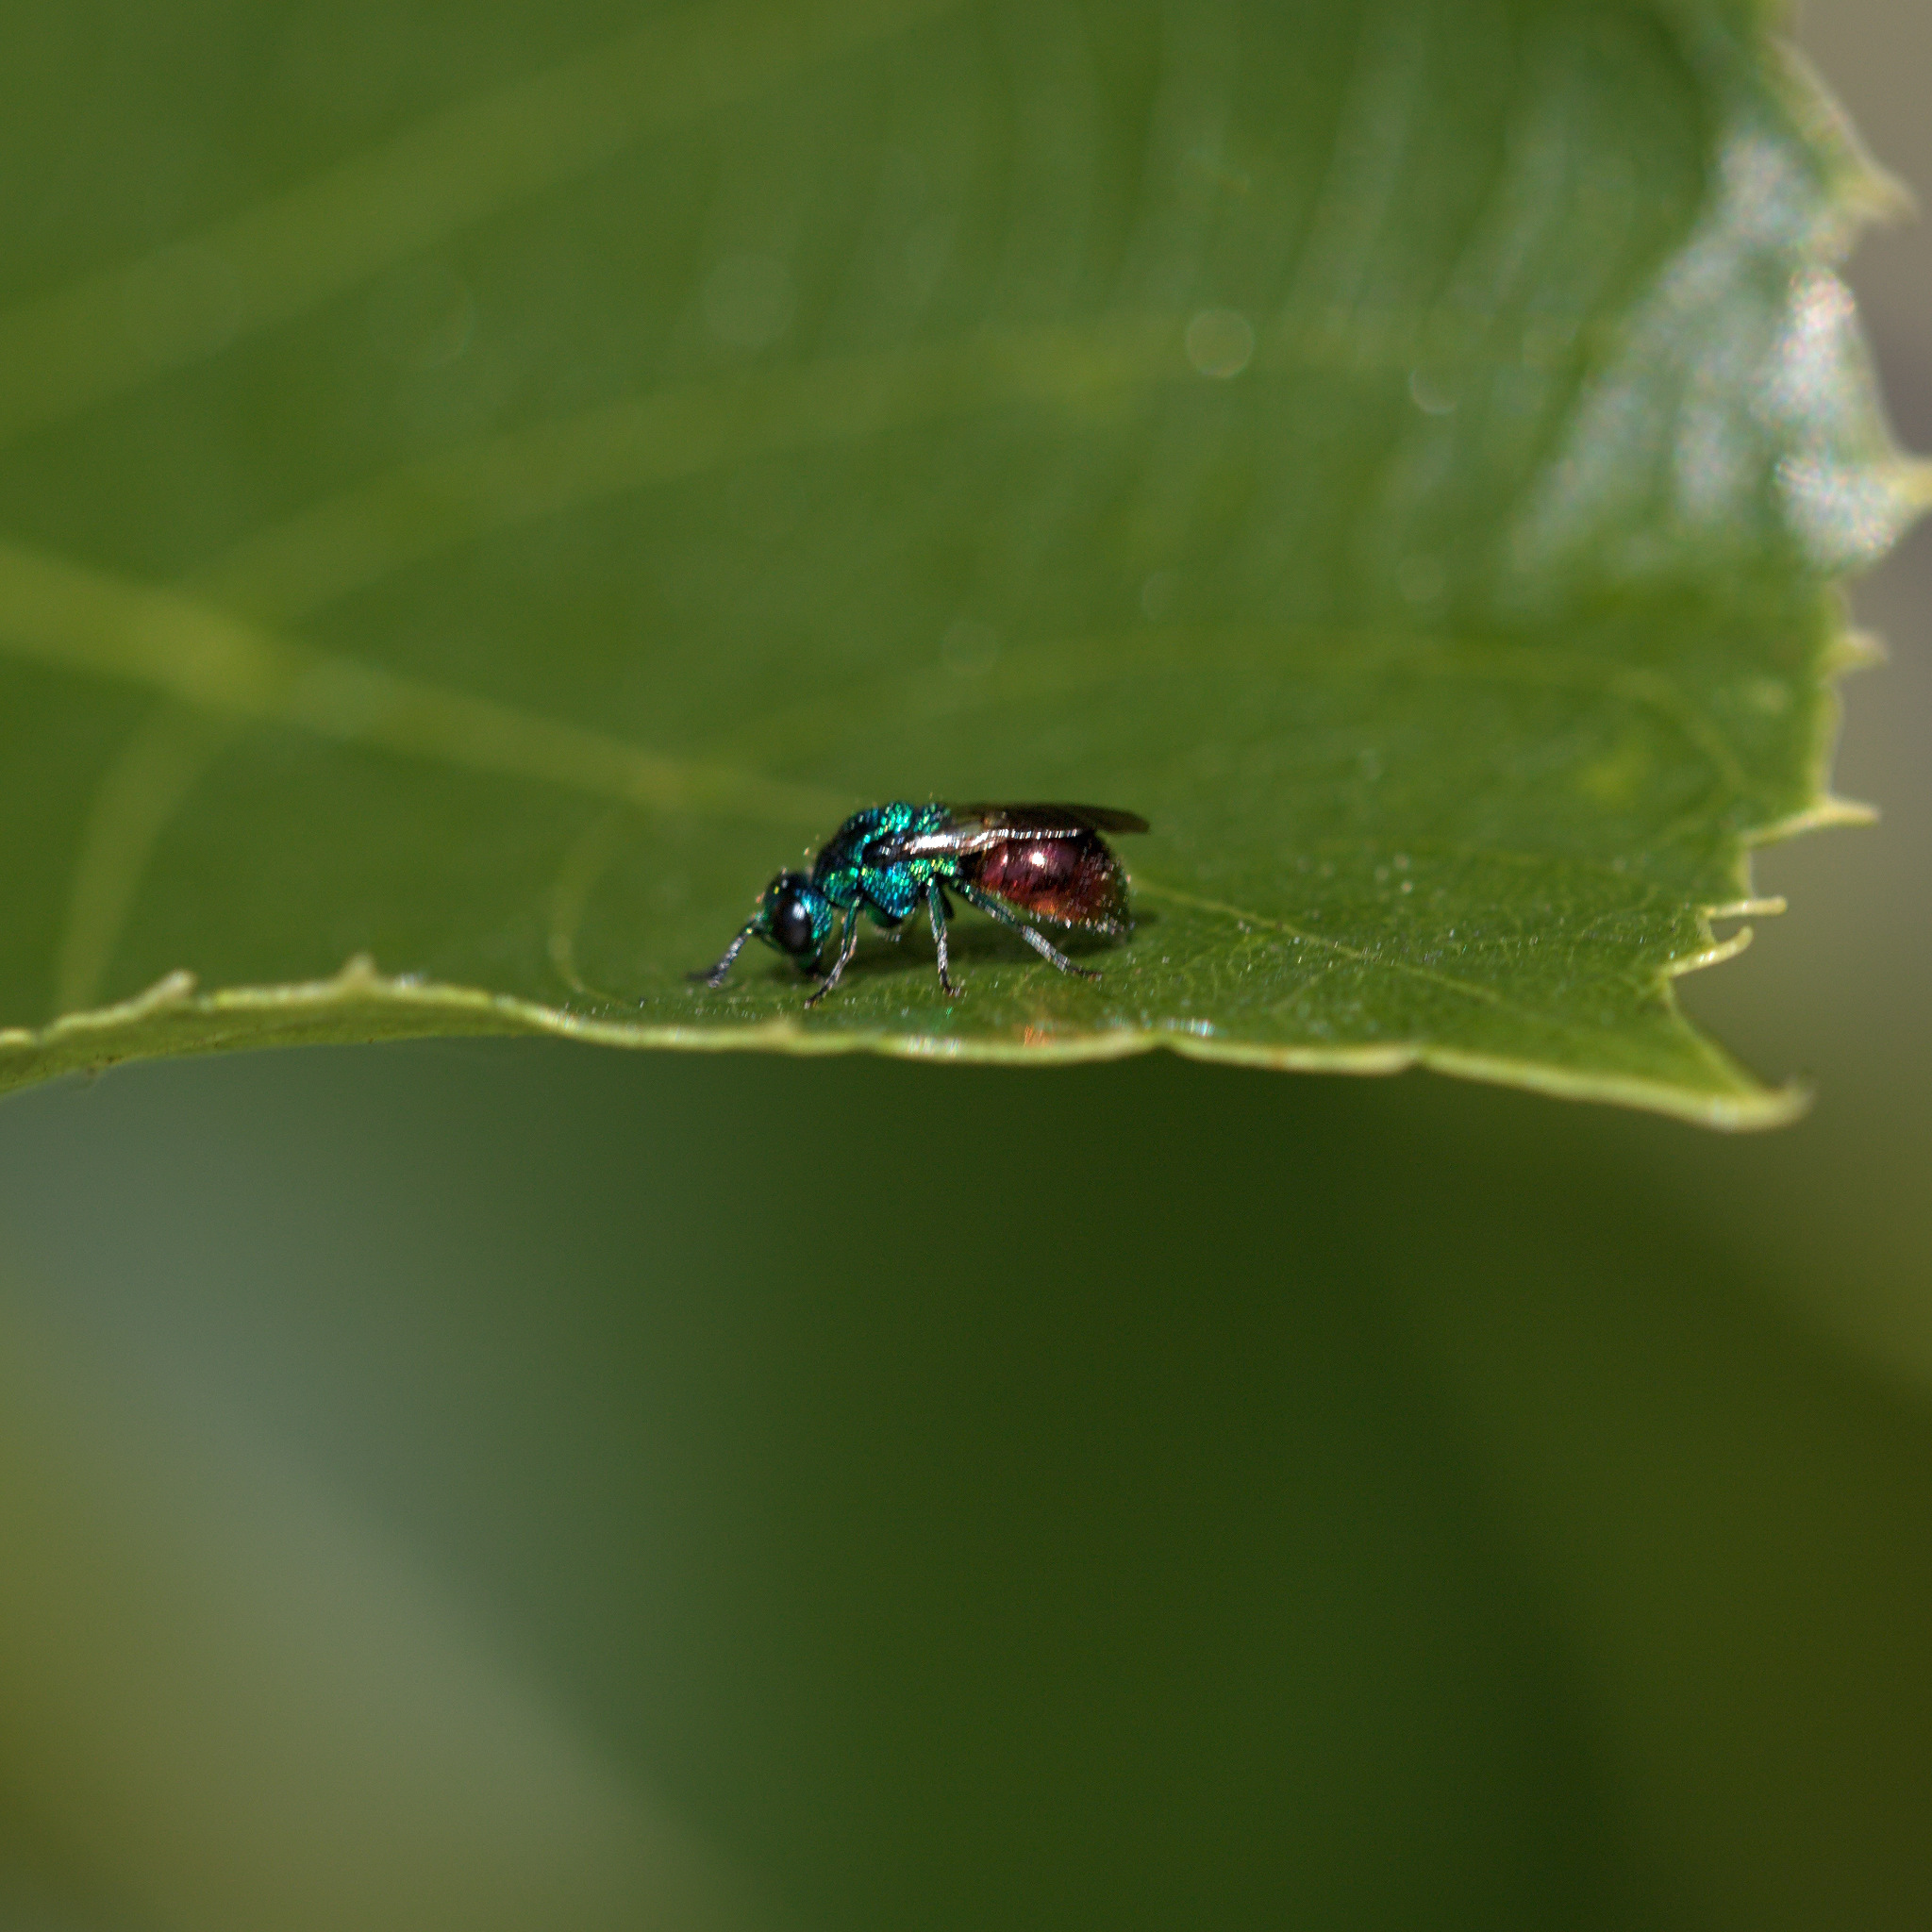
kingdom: Animalia
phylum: Arthropoda
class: Insecta
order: Hymenoptera
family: Chrysididae
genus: Pseudomalus
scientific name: Pseudomalus auratus
